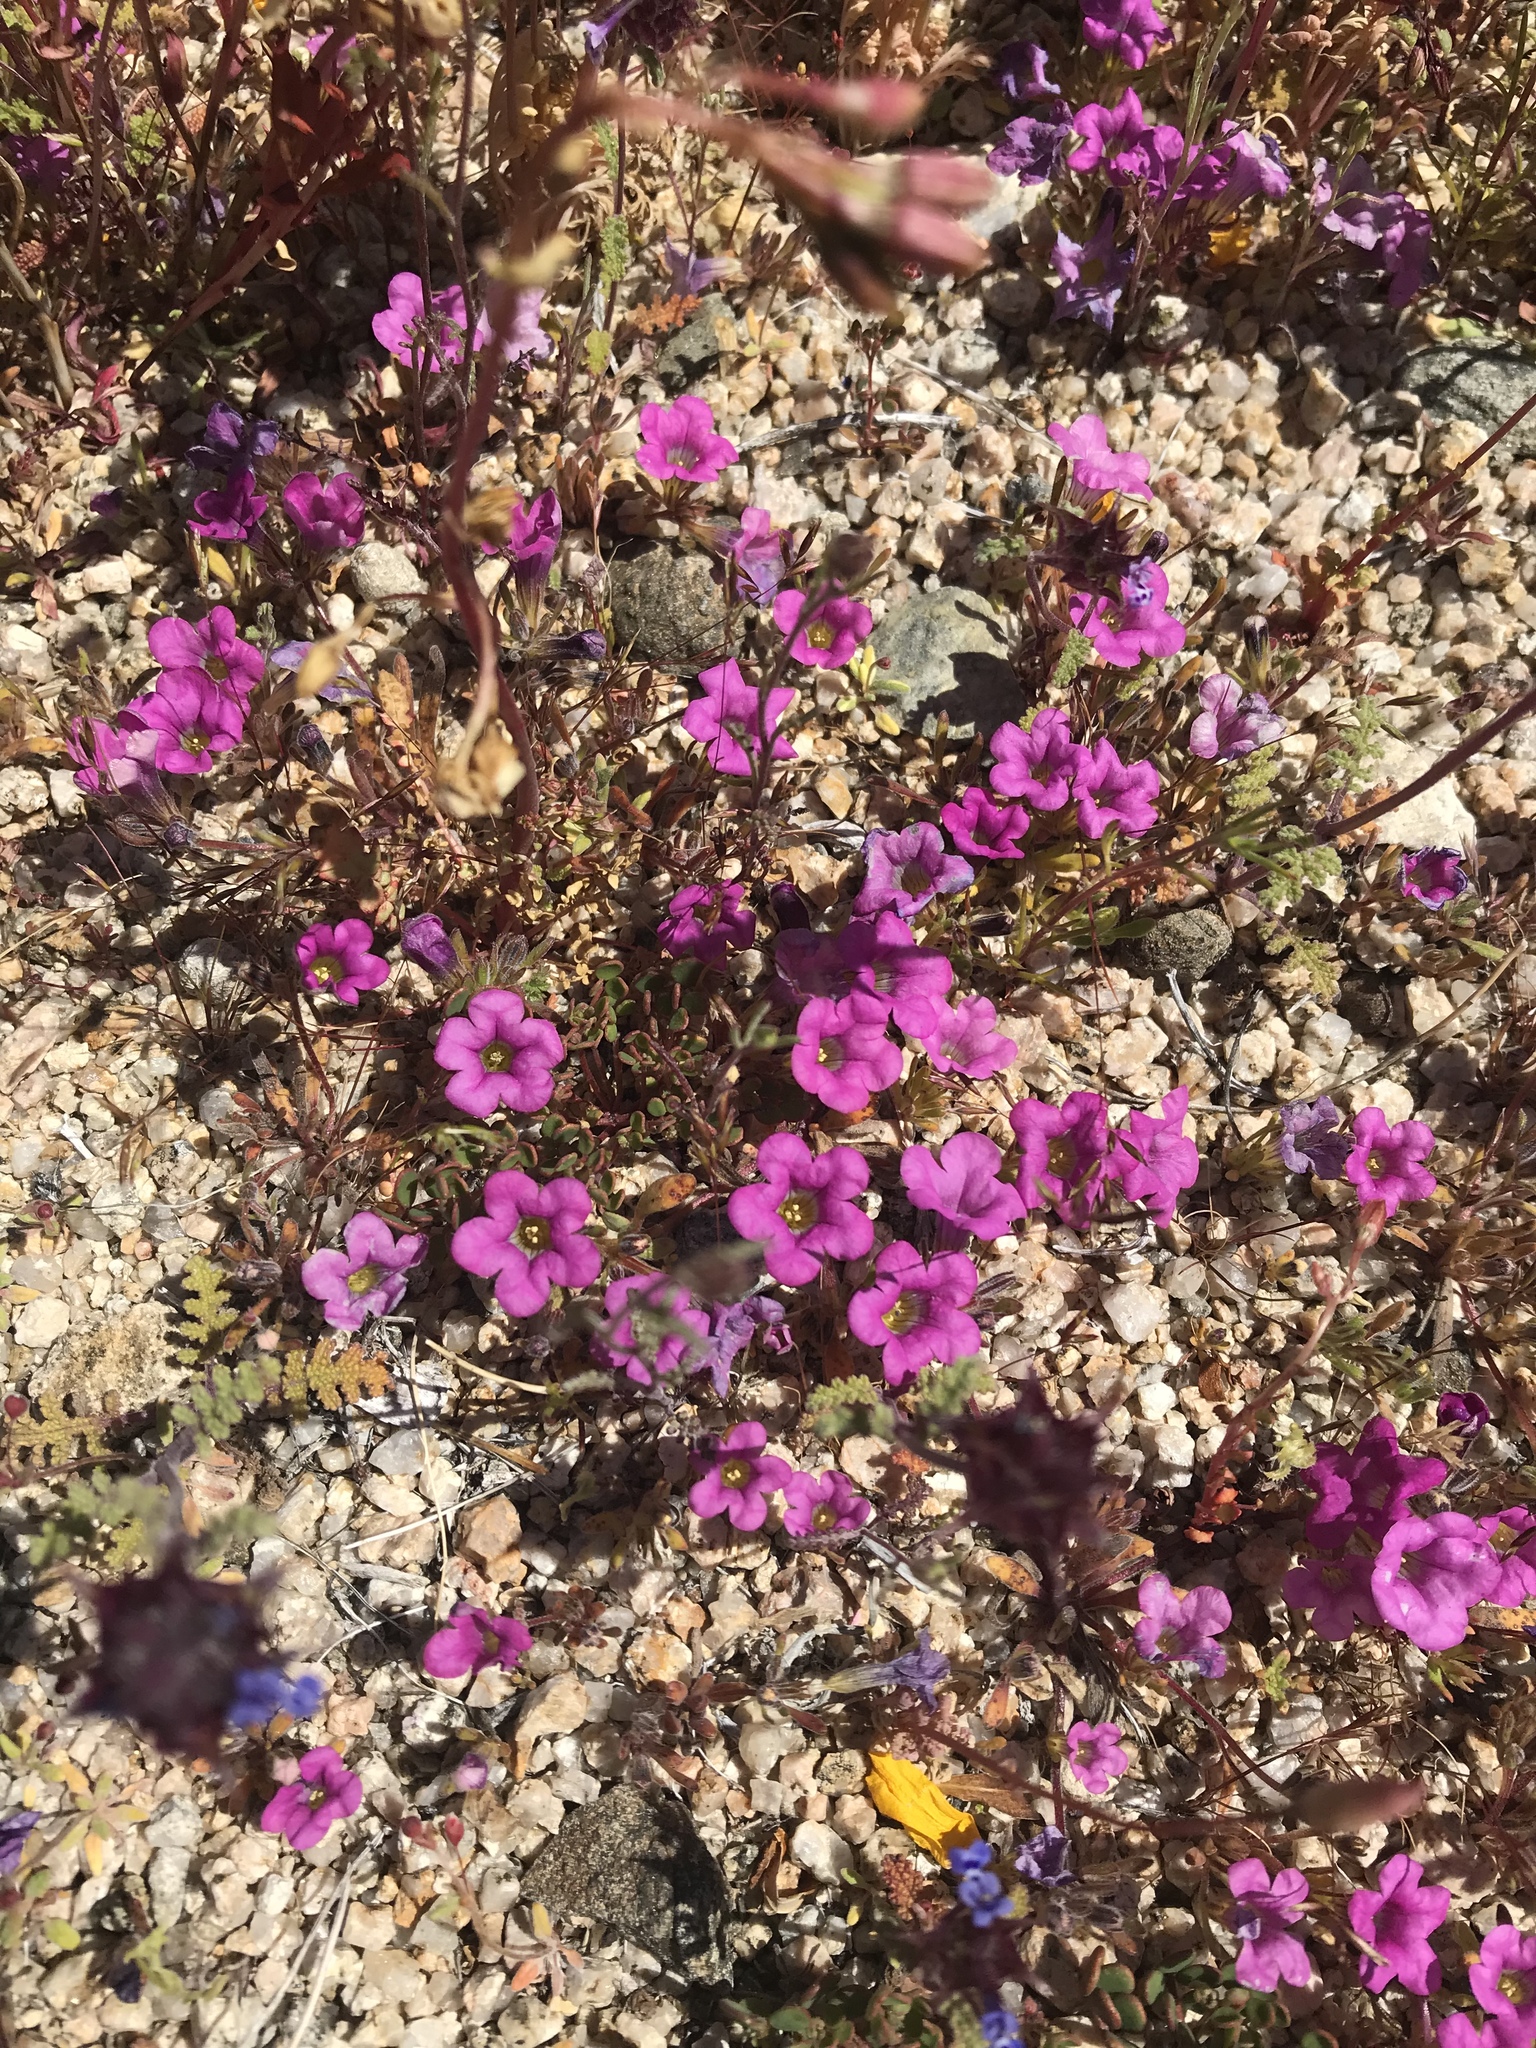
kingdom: Plantae
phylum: Tracheophyta
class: Magnoliopsida
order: Boraginales
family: Namaceae
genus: Nama
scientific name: Nama demissa
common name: Leafy nama
